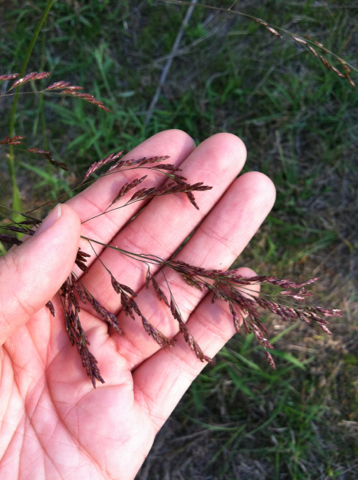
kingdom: Plantae
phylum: Tracheophyta
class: Liliopsida
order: Poales
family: Poaceae
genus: Tridens
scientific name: Tridens flavus
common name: Purpletop
